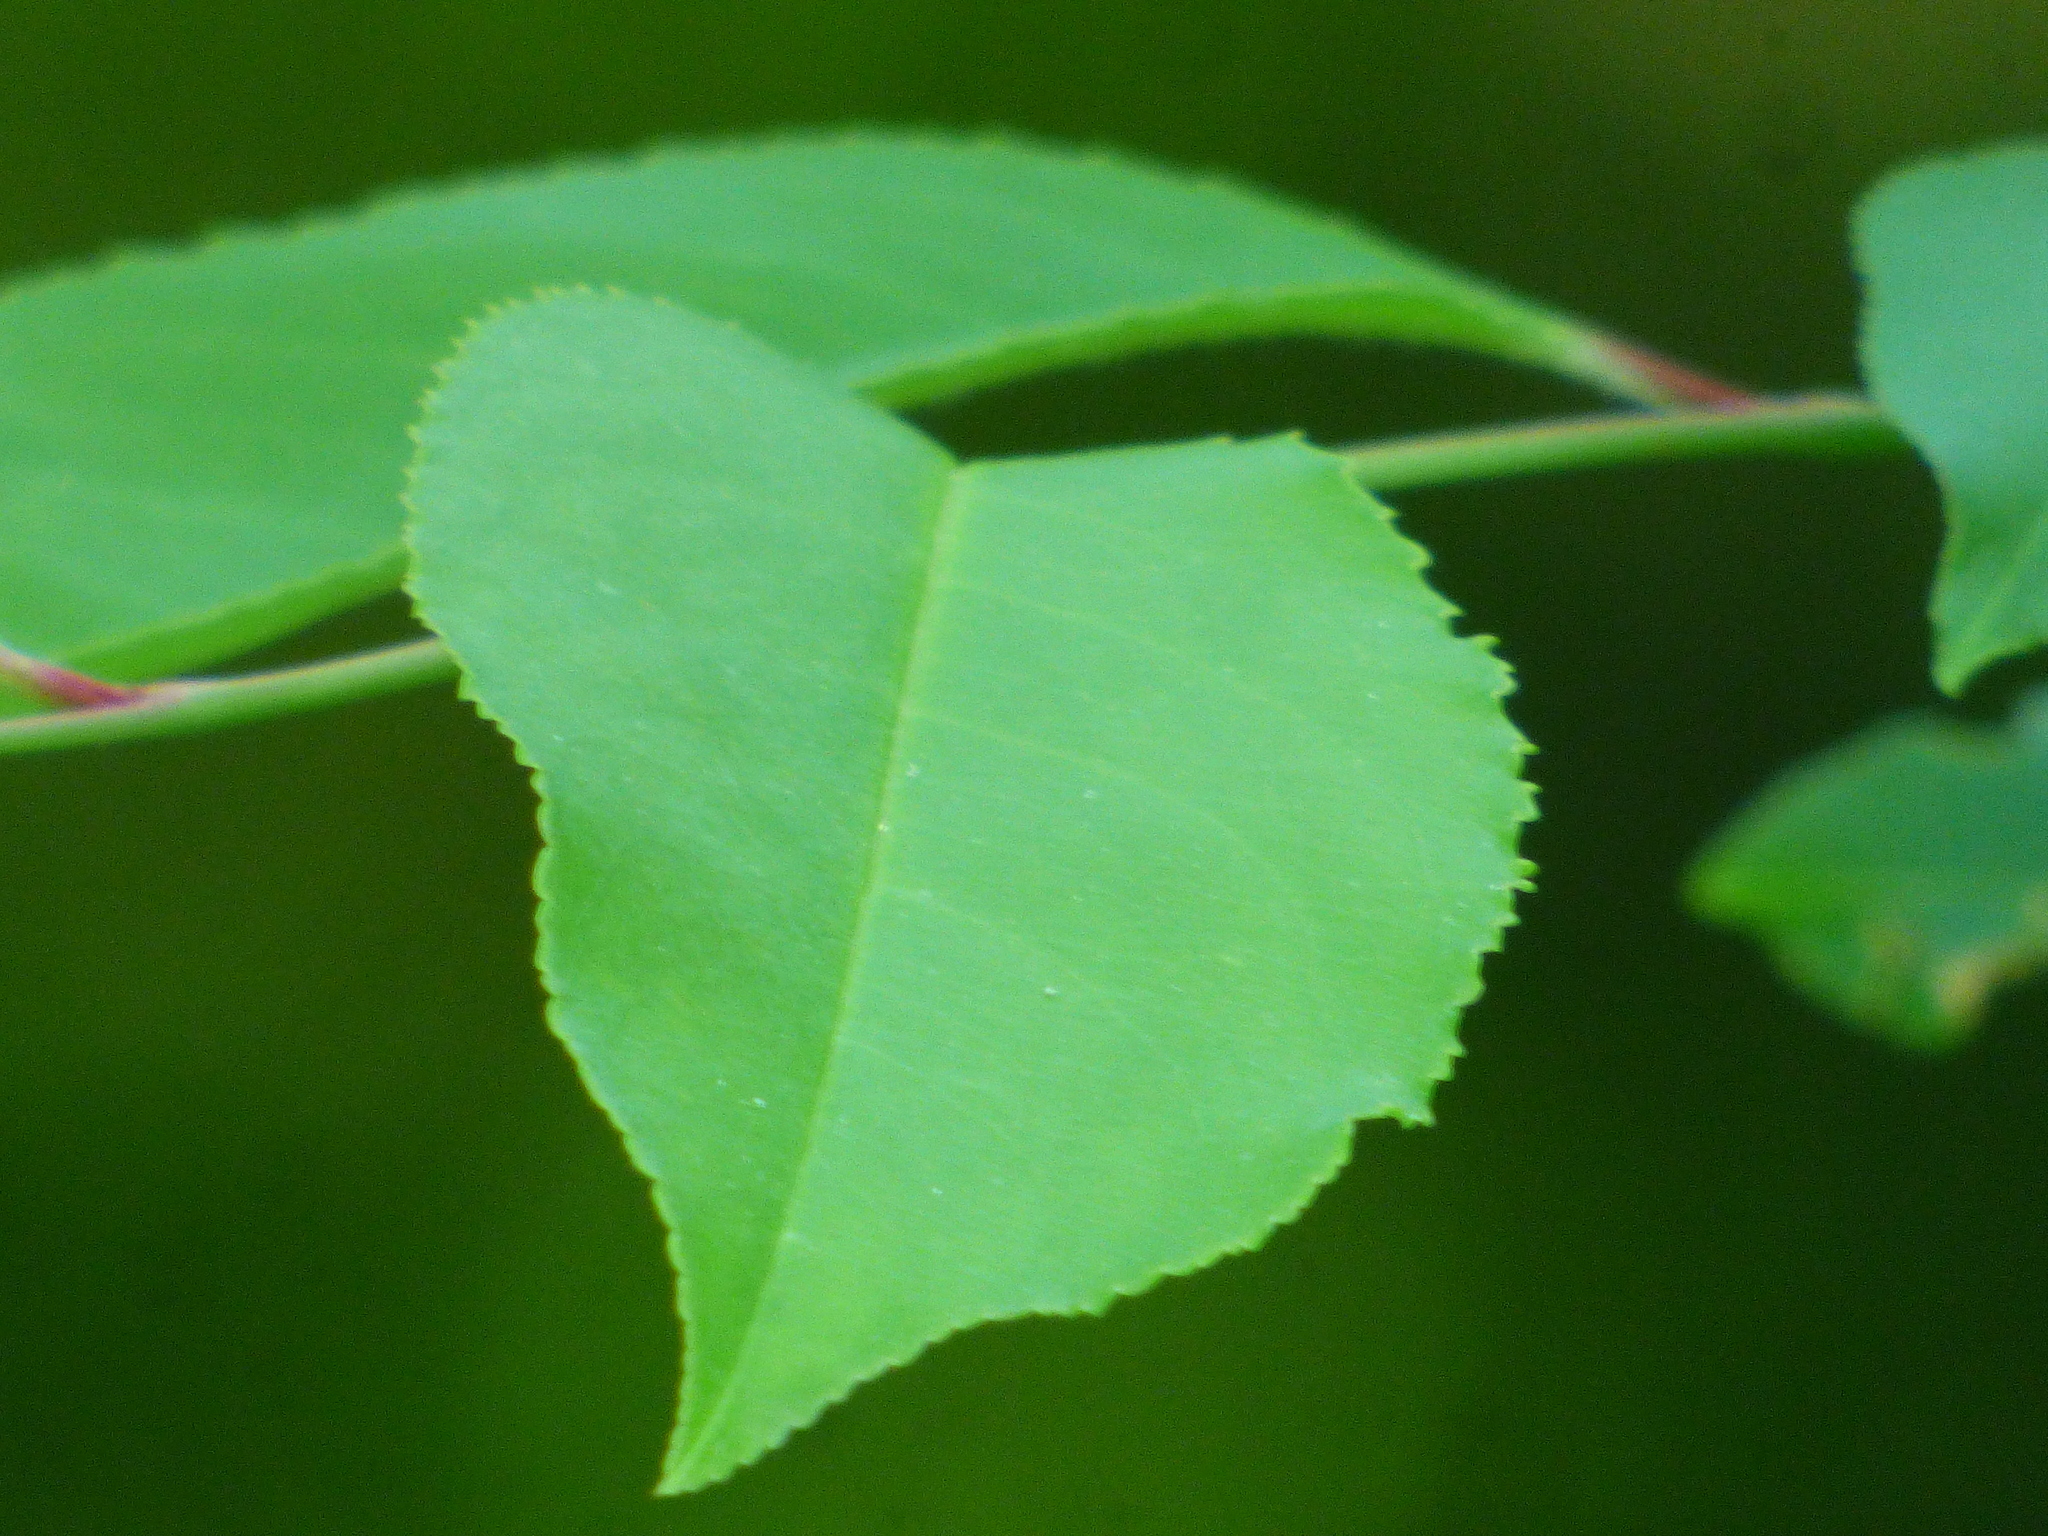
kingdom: Plantae
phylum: Tracheophyta
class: Magnoliopsida
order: Rosales
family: Rosaceae
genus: Prunus
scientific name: Prunus serotina
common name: Black cherry
